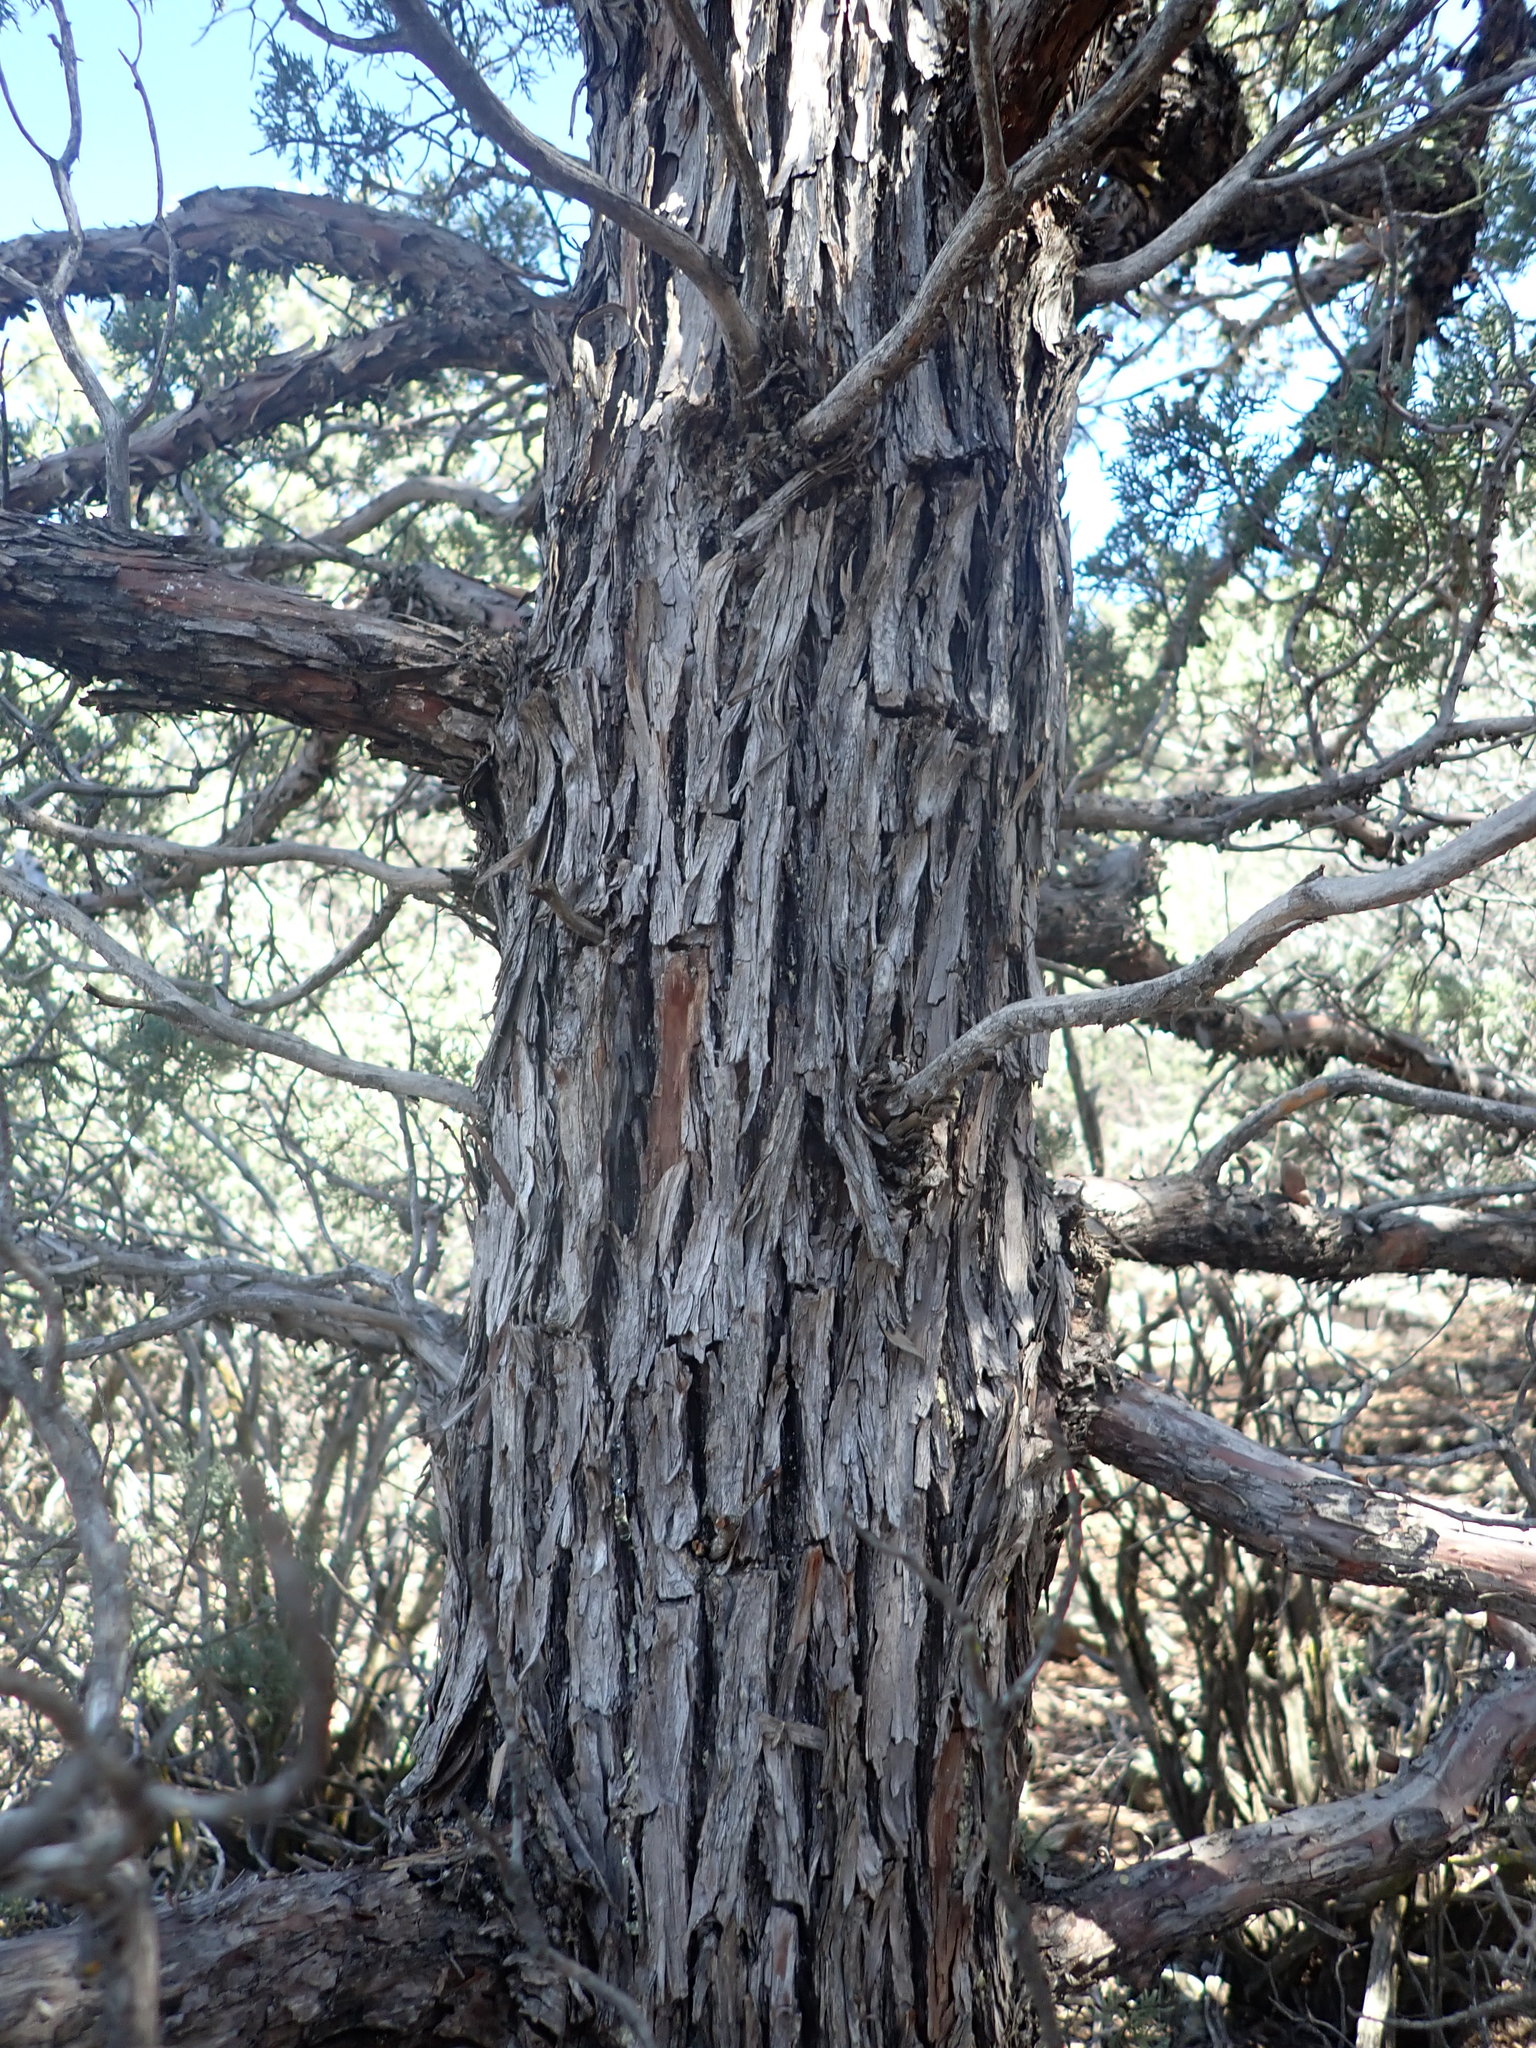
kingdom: Plantae
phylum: Tracheophyta
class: Pinopsida
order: Pinales
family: Cupressaceae
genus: Cupressus
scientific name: Cupressus arizonica
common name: Arizona cypress
